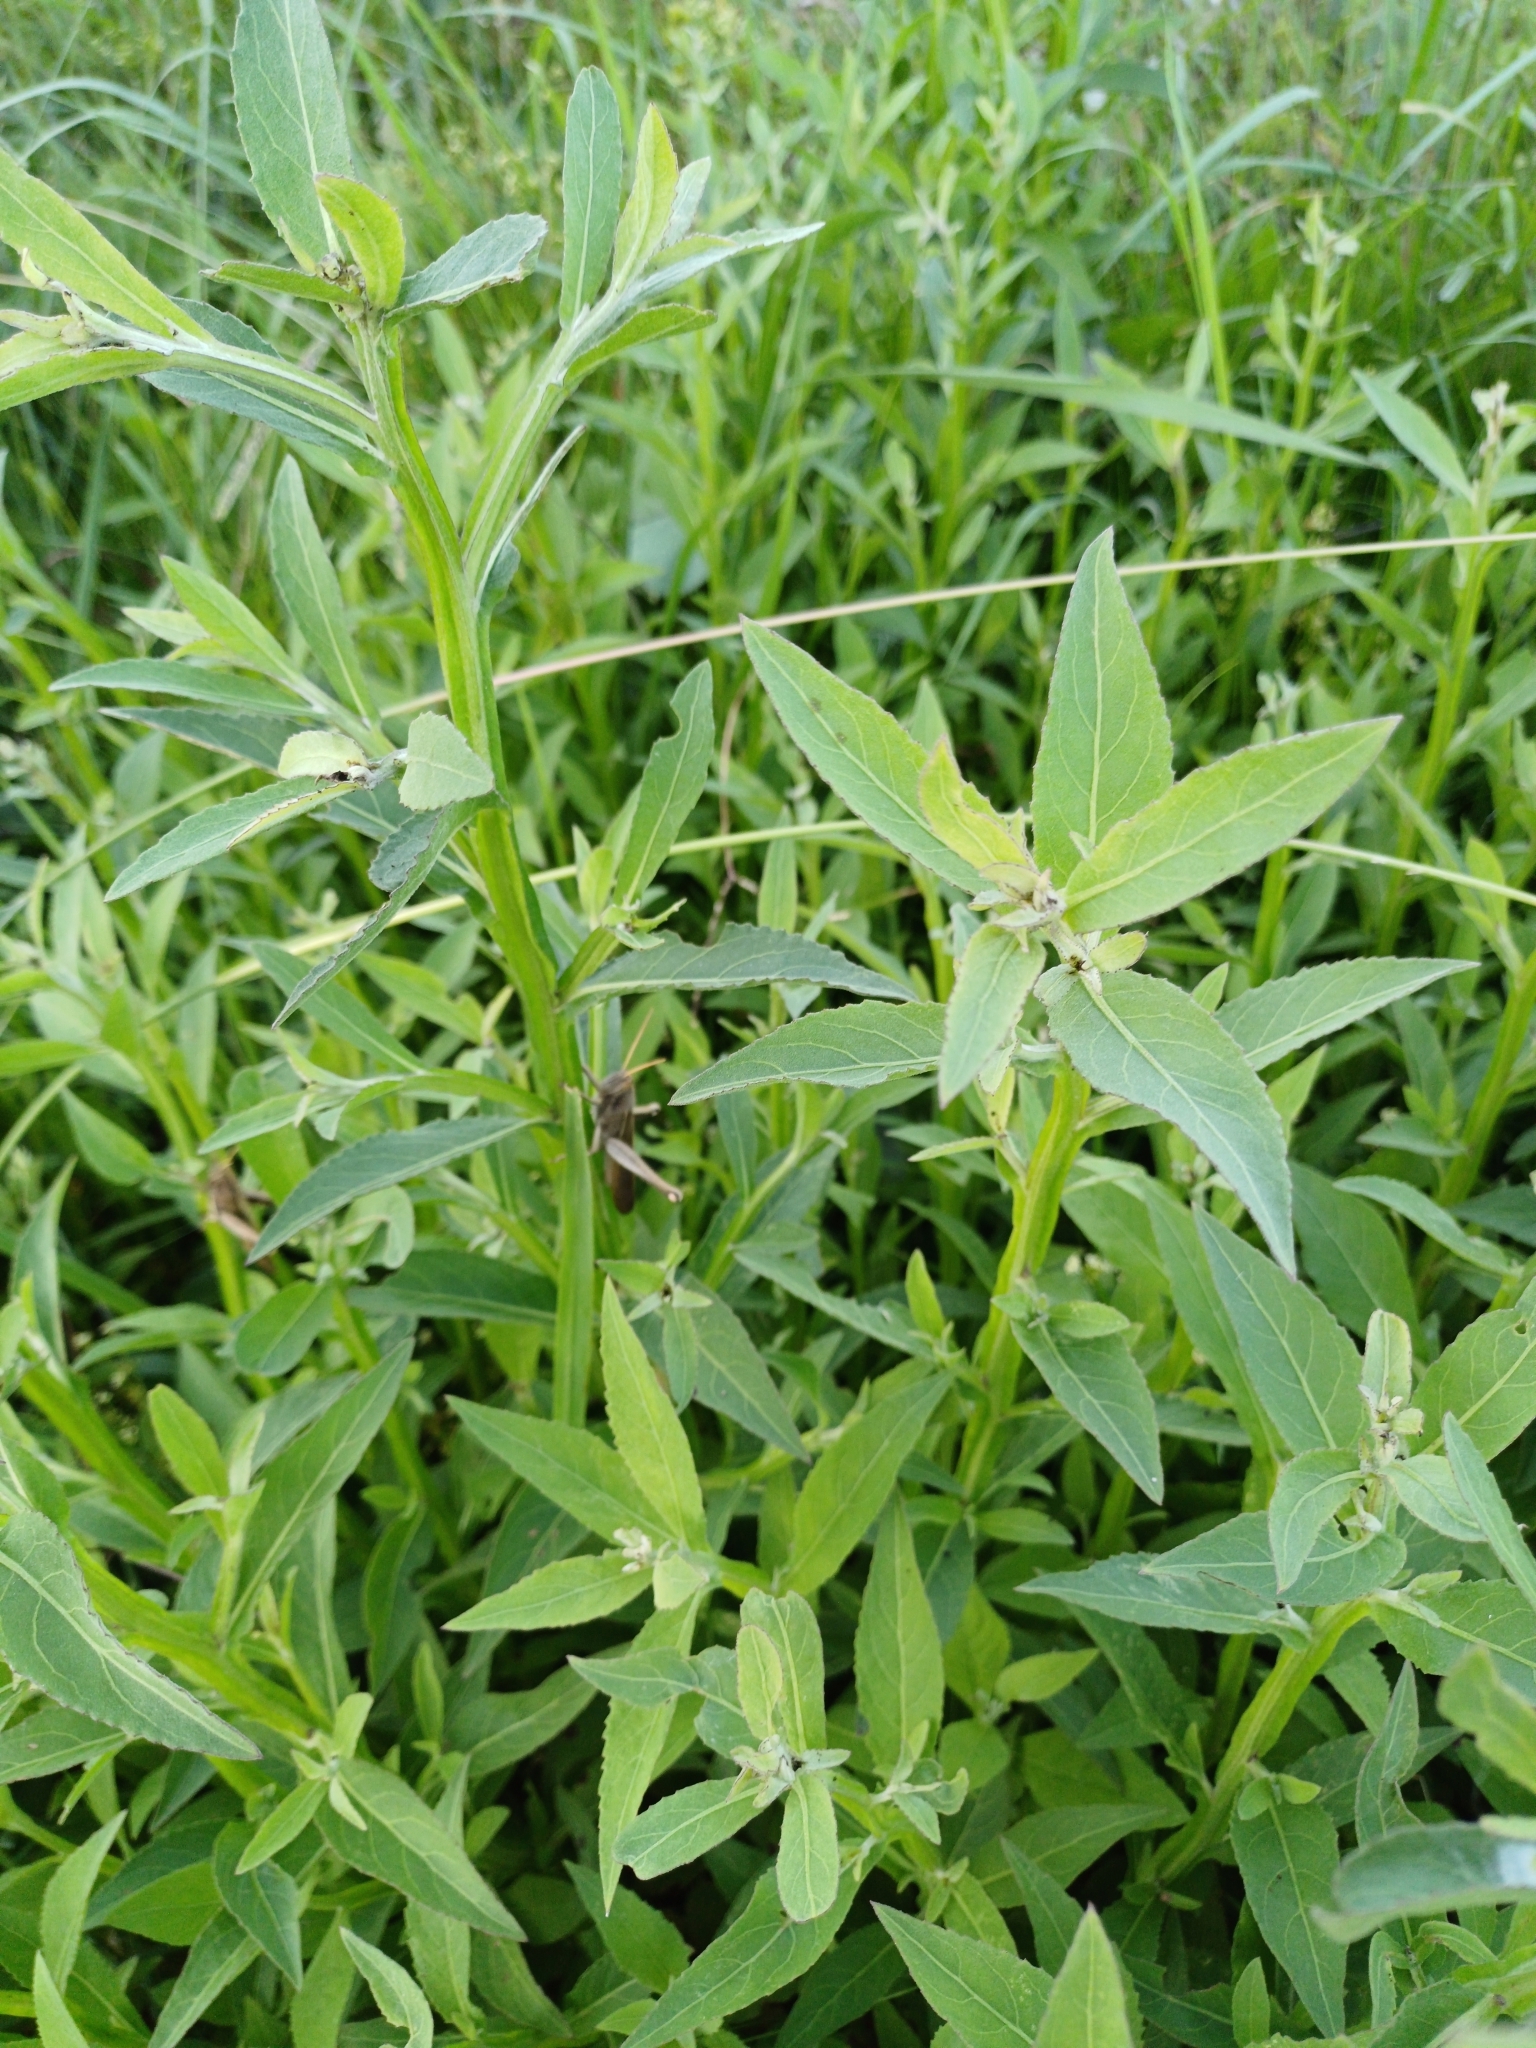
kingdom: Plantae
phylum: Tracheophyta
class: Magnoliopsida
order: Asterales
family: Asteraceae
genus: Pluchea
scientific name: Pluchea sagittalis
